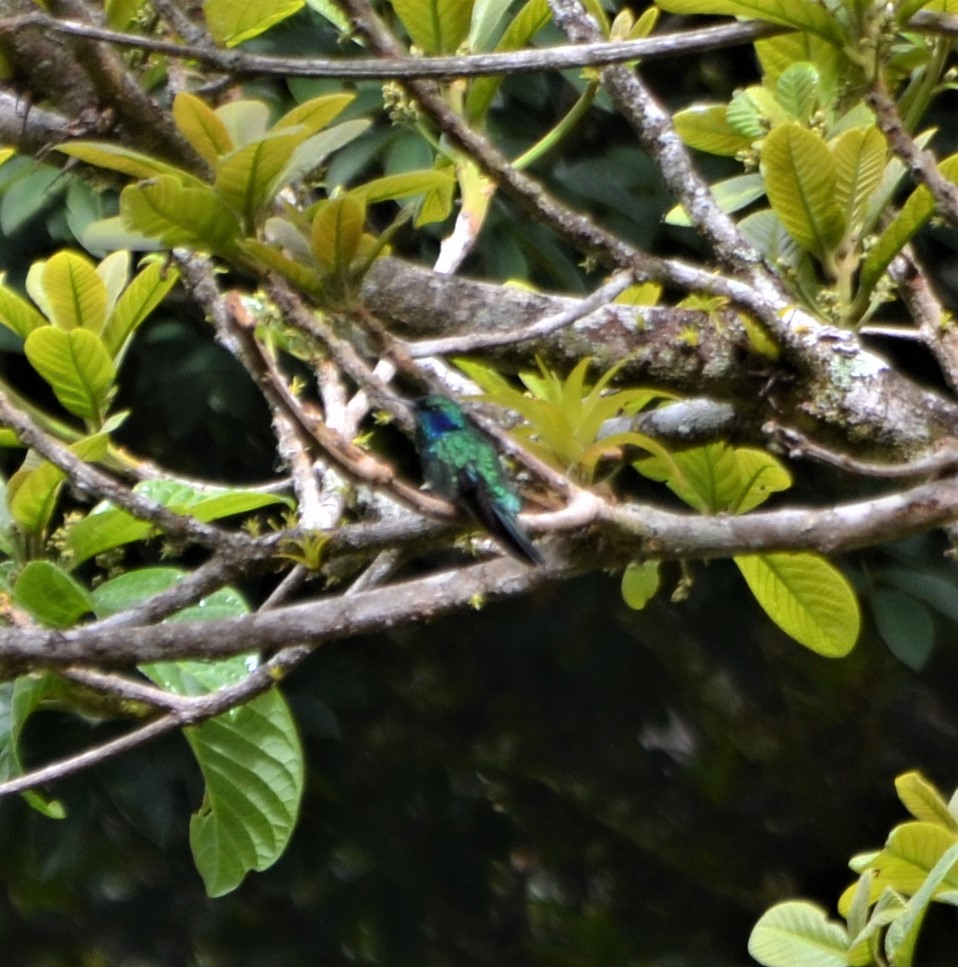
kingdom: Animalia
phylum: Chordata
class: Aves
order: Apodiformes
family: Trochilidae
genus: Colibri
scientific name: Colibri cyanotus
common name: Lesser violetear
